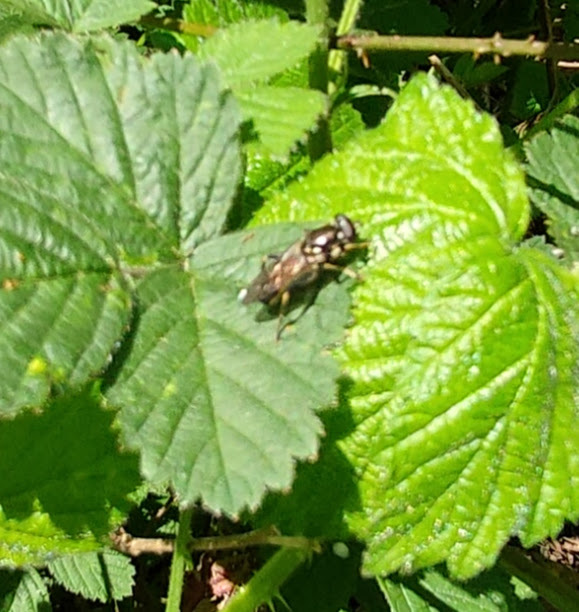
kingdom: Animalia
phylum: Arthropoda
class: Insecta
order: Diptera
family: Syrphidae
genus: Xylota
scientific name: Xylota
